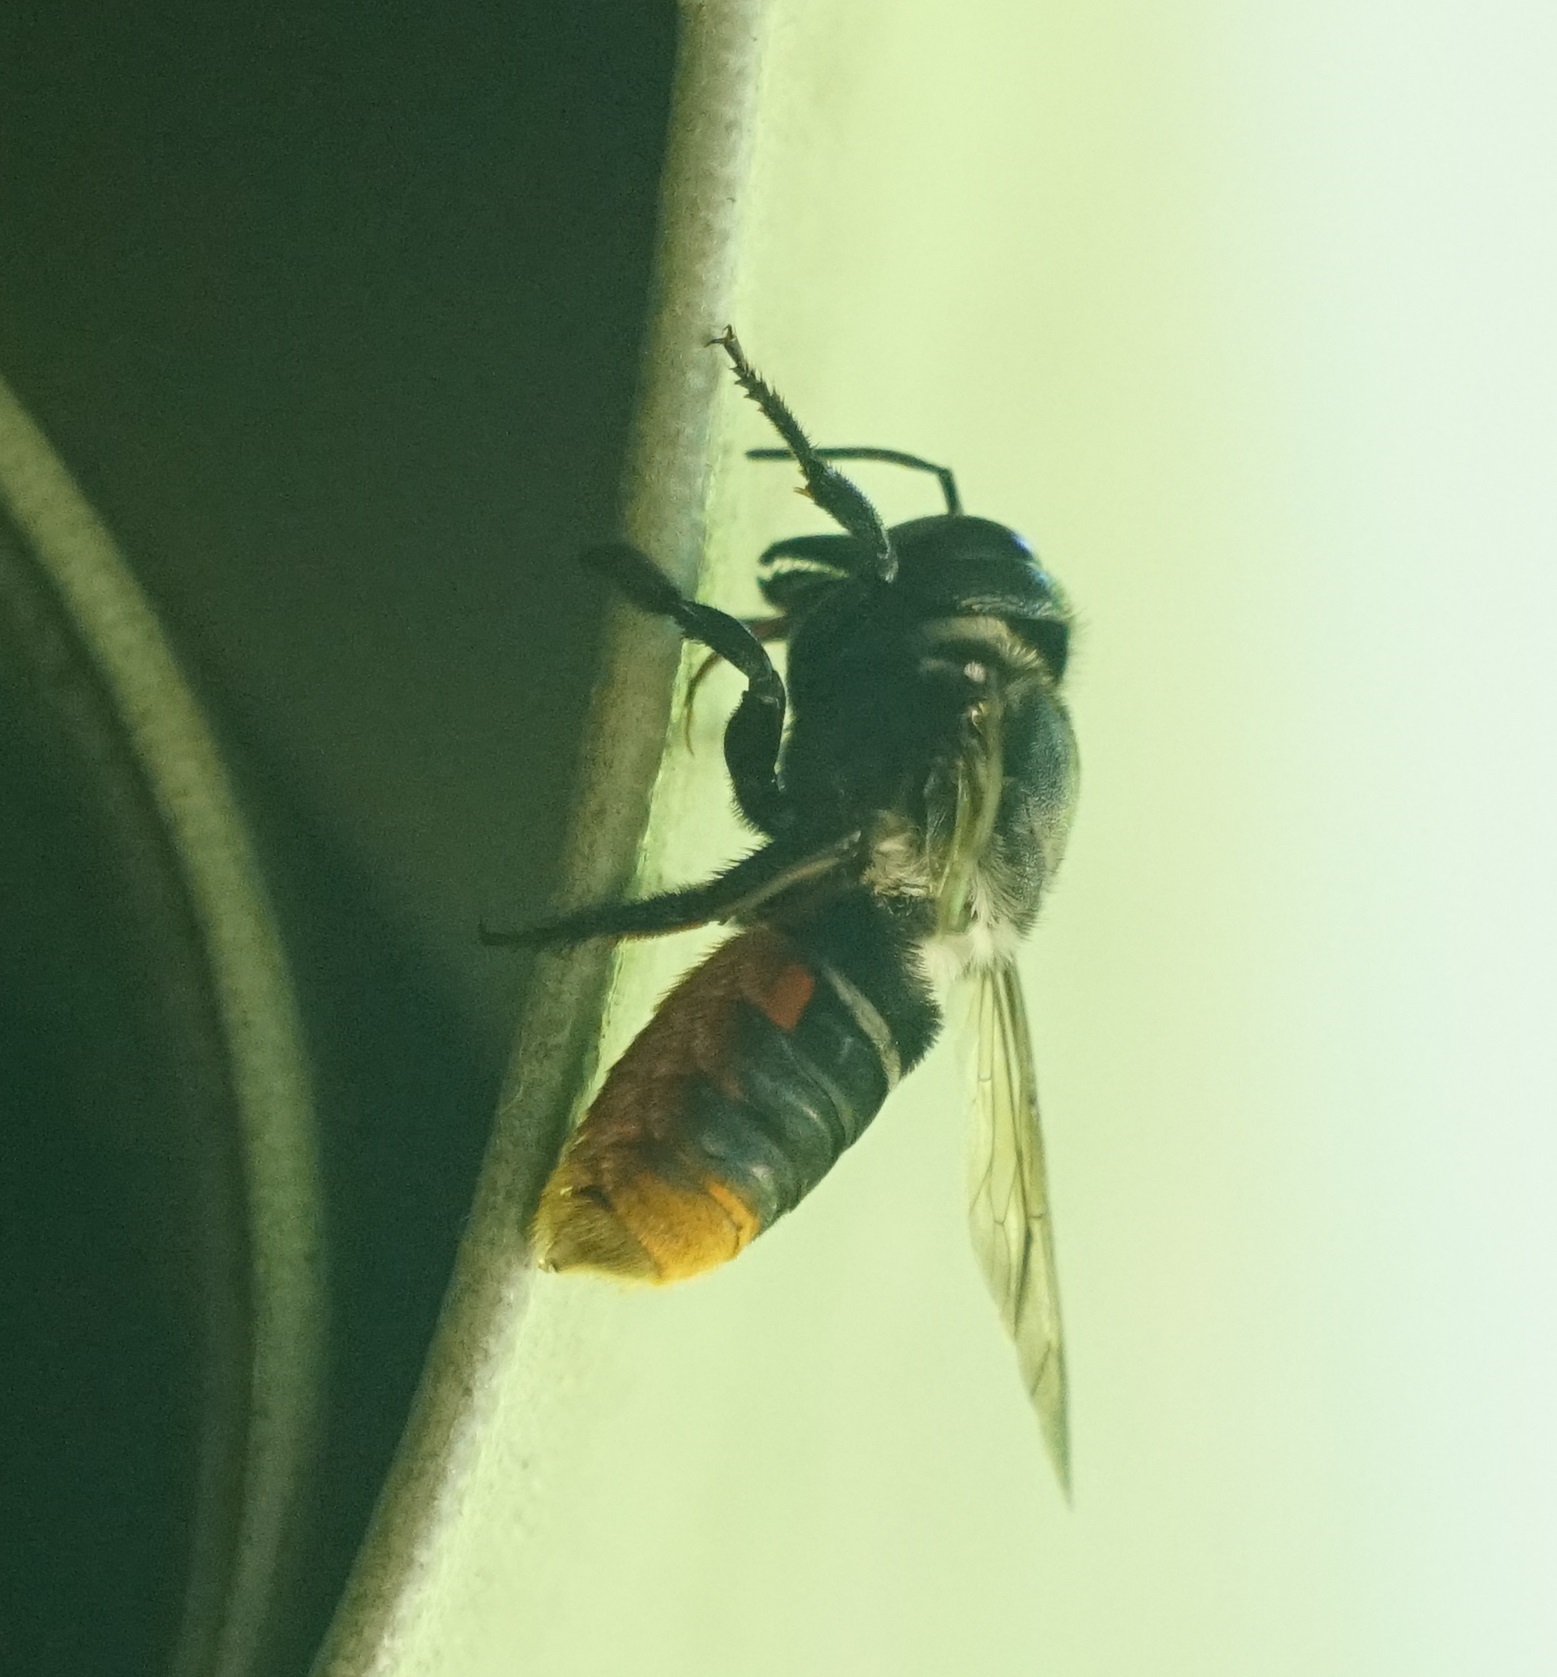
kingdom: Animalia
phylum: Arthropoda
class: Insecta
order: Hymenoptera
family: Megachilidae
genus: Megachile
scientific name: Megachile ornata
